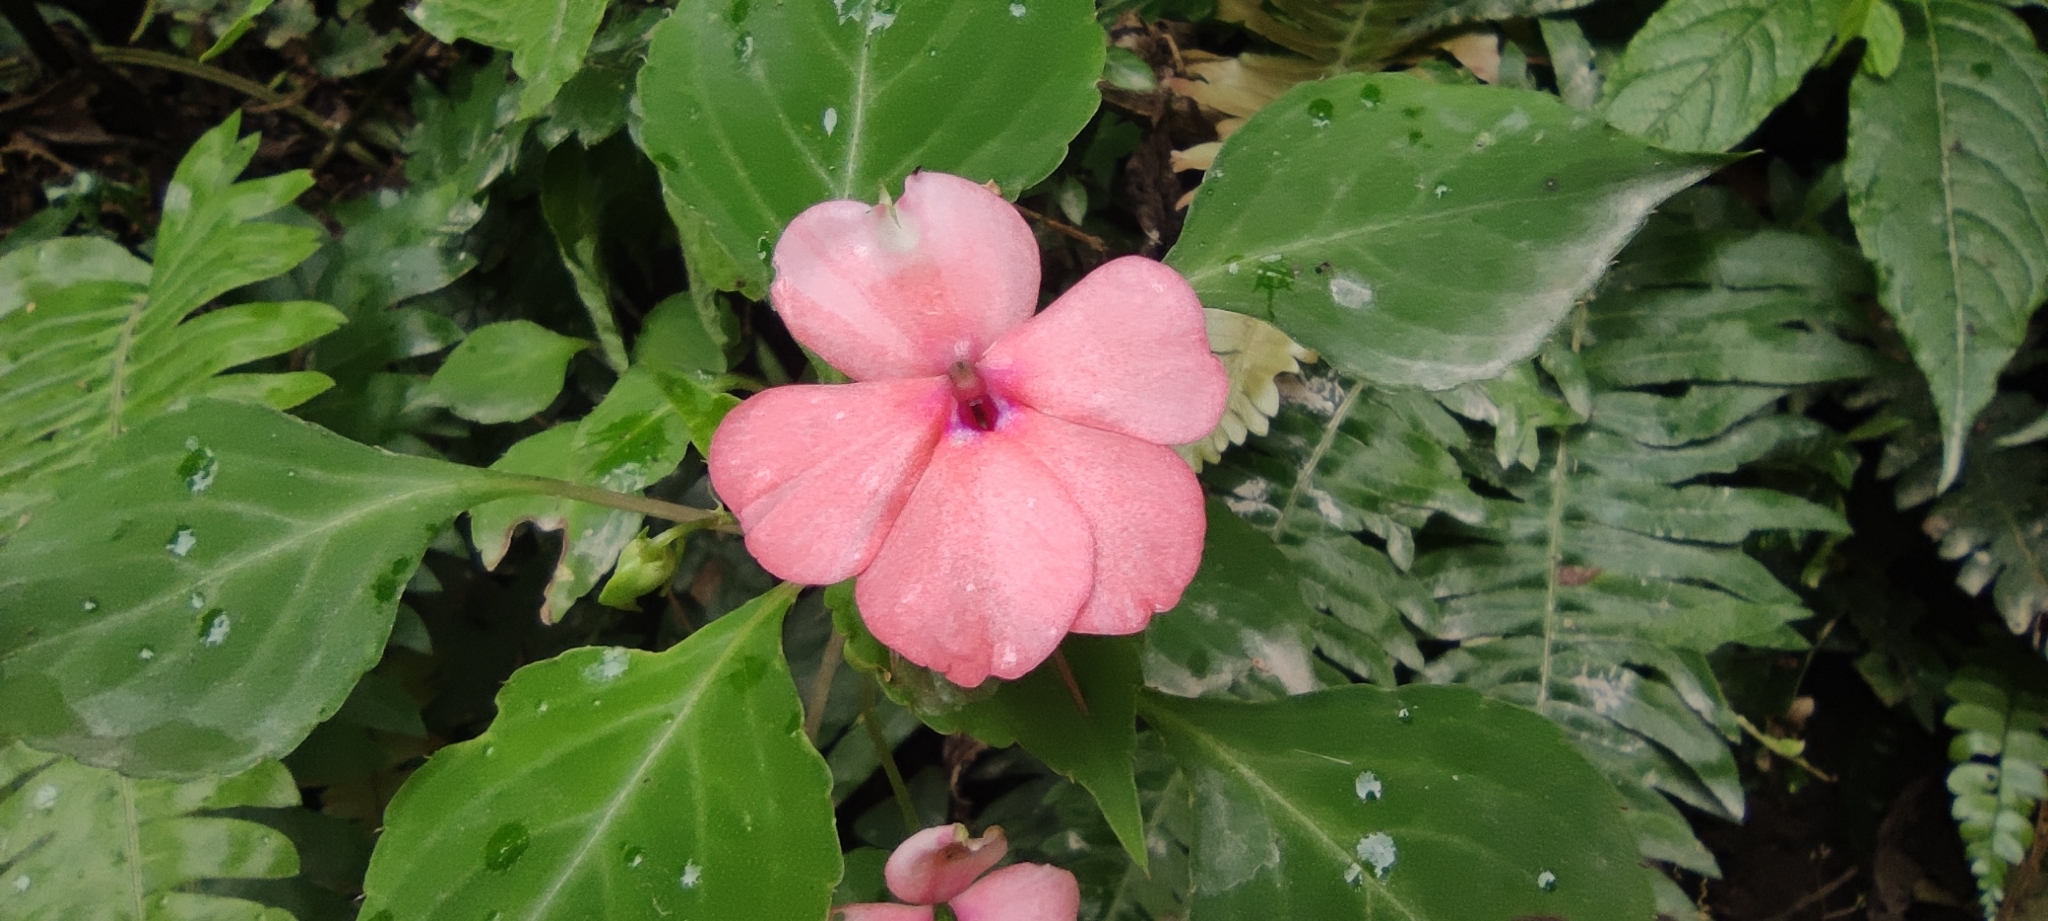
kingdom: Plantae
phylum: Tracheophyta
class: Magnoliopsida
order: Ericales
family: Balsaminaceae
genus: Impatiens
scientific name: Impatiens walleriana
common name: Buzzy lizzy
